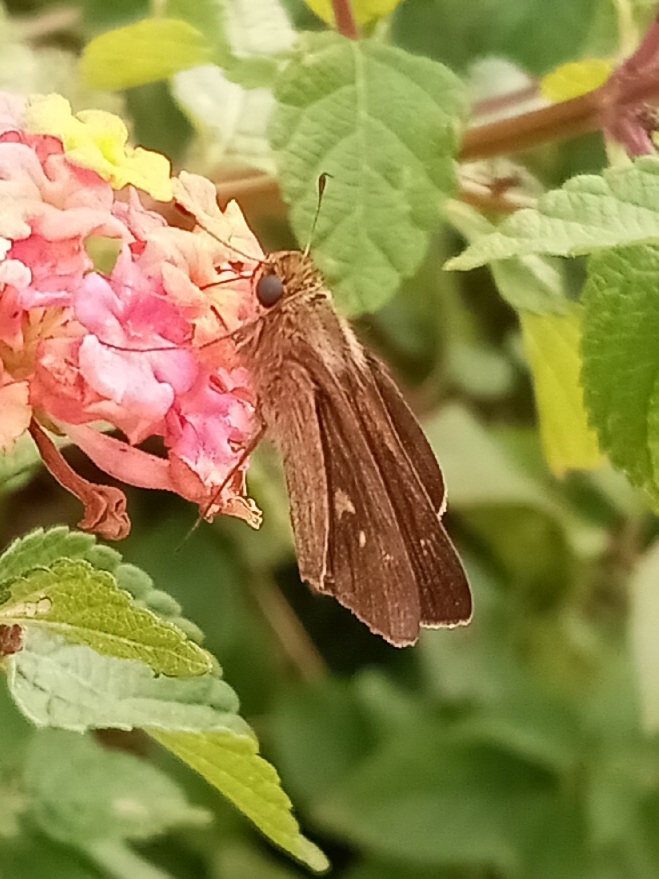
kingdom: Animalia
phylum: Arthropoda
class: Insecta
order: Lepidoptera
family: Hesperiidae
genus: Panoquina
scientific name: Panoquina ocola
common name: Ocola skipper
